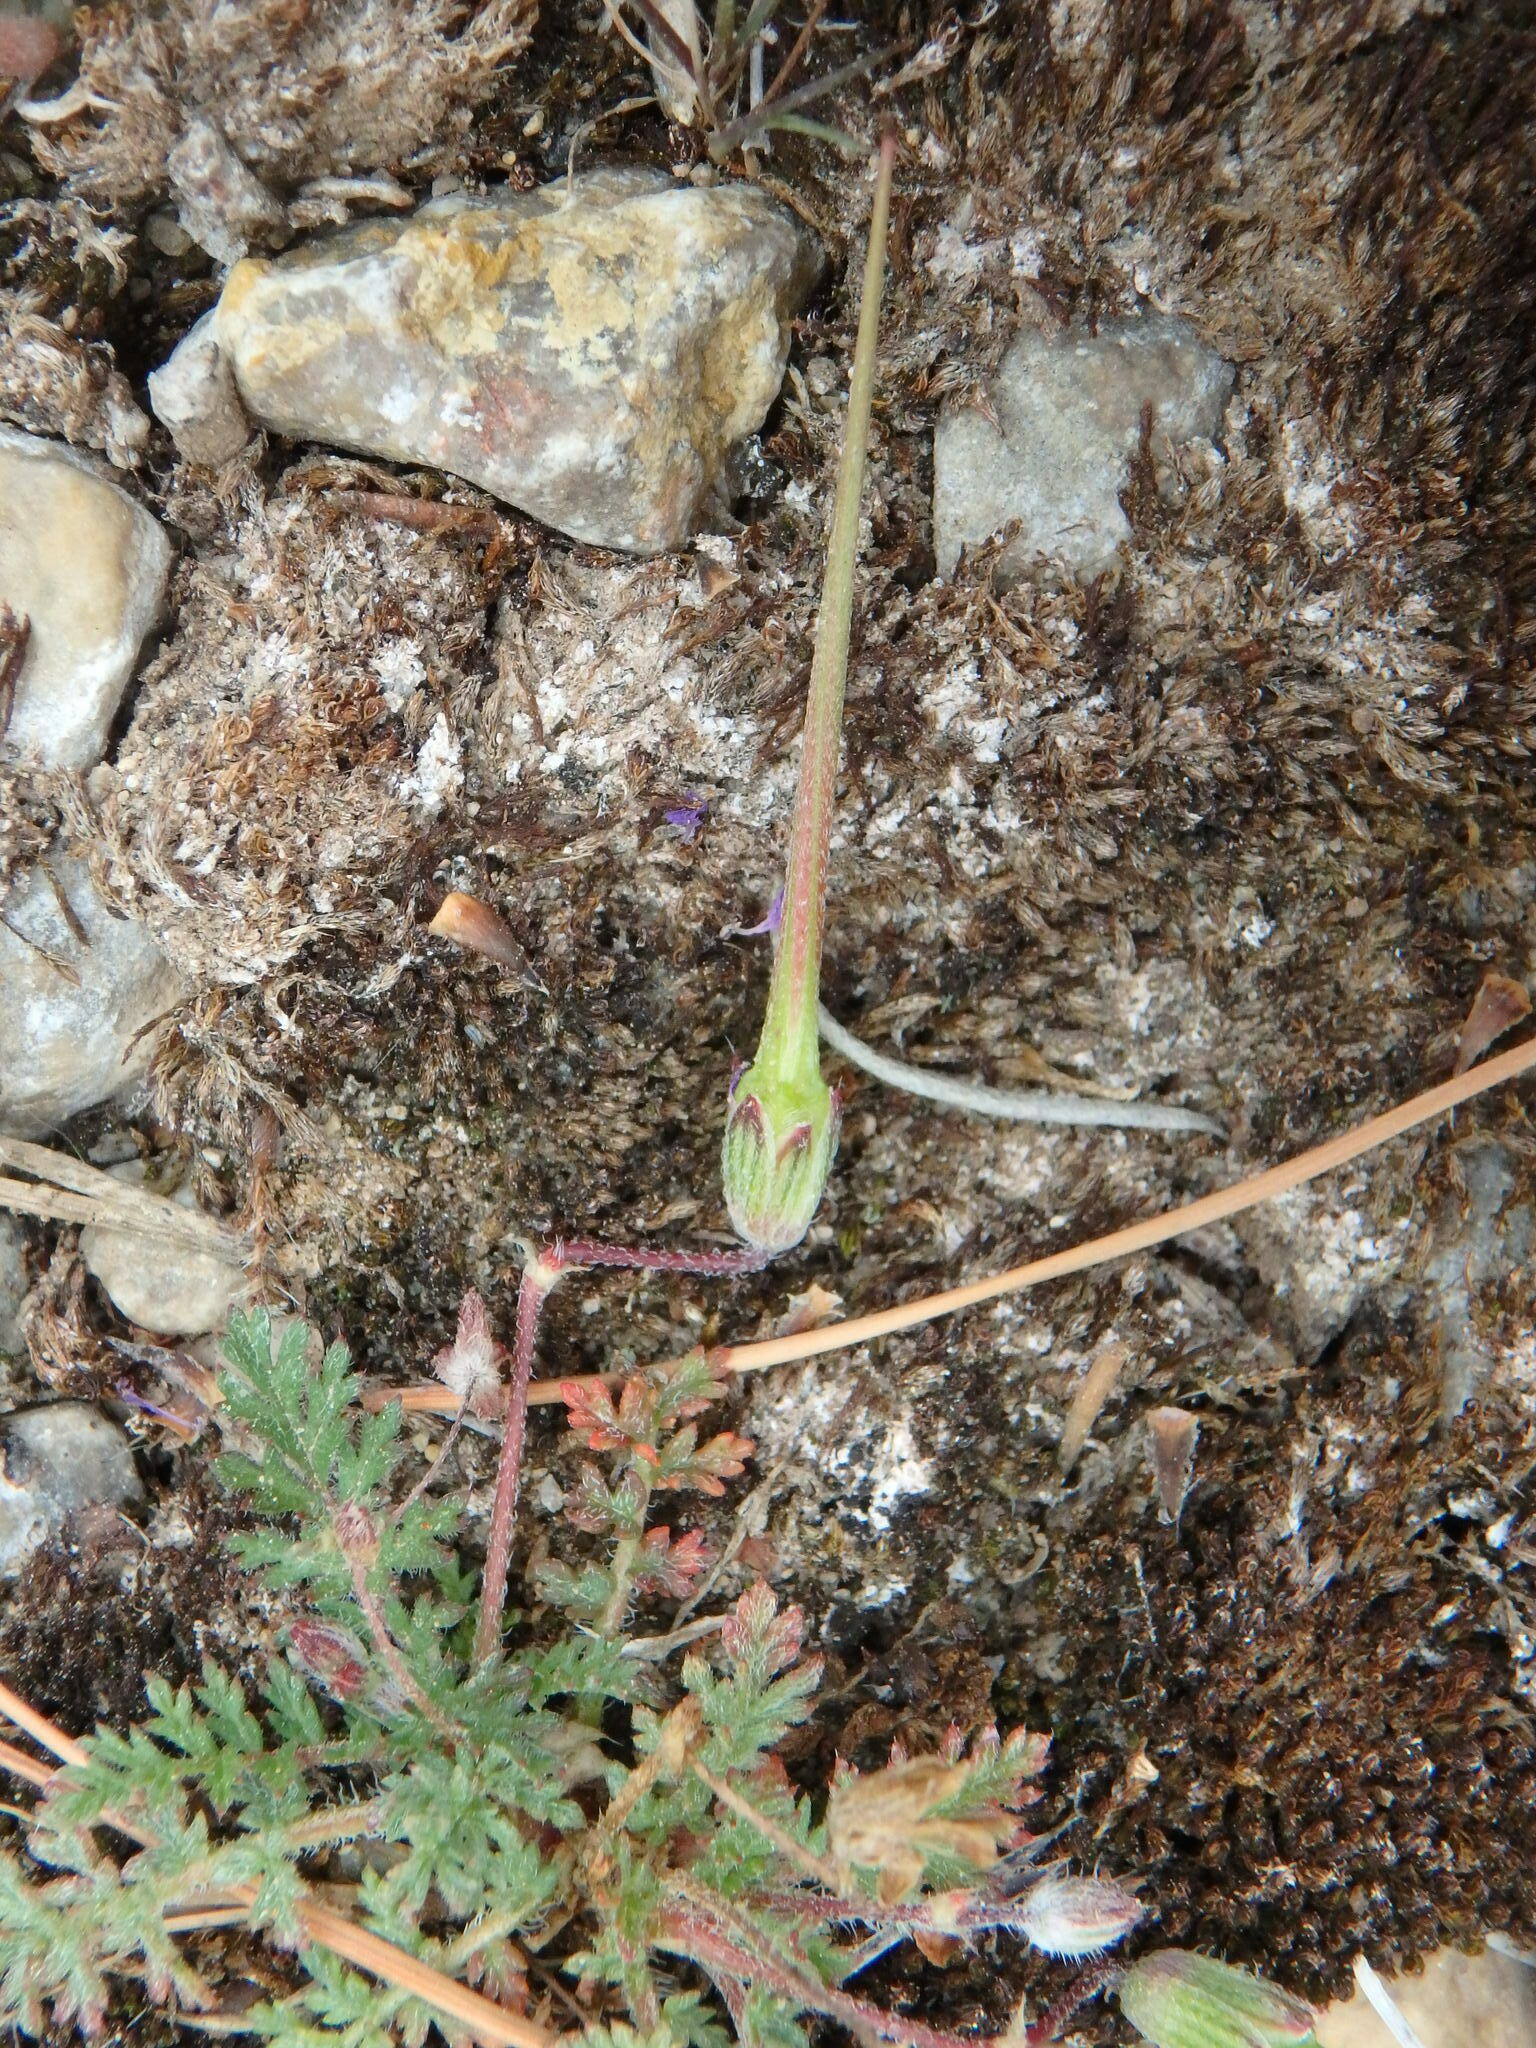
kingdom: Plantae
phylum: Tracheophyta
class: Magnoliopsida
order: Geraniales
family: Geraniaceae
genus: Erodium
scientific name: Erodium cicutarium
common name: Common stork's-bill
